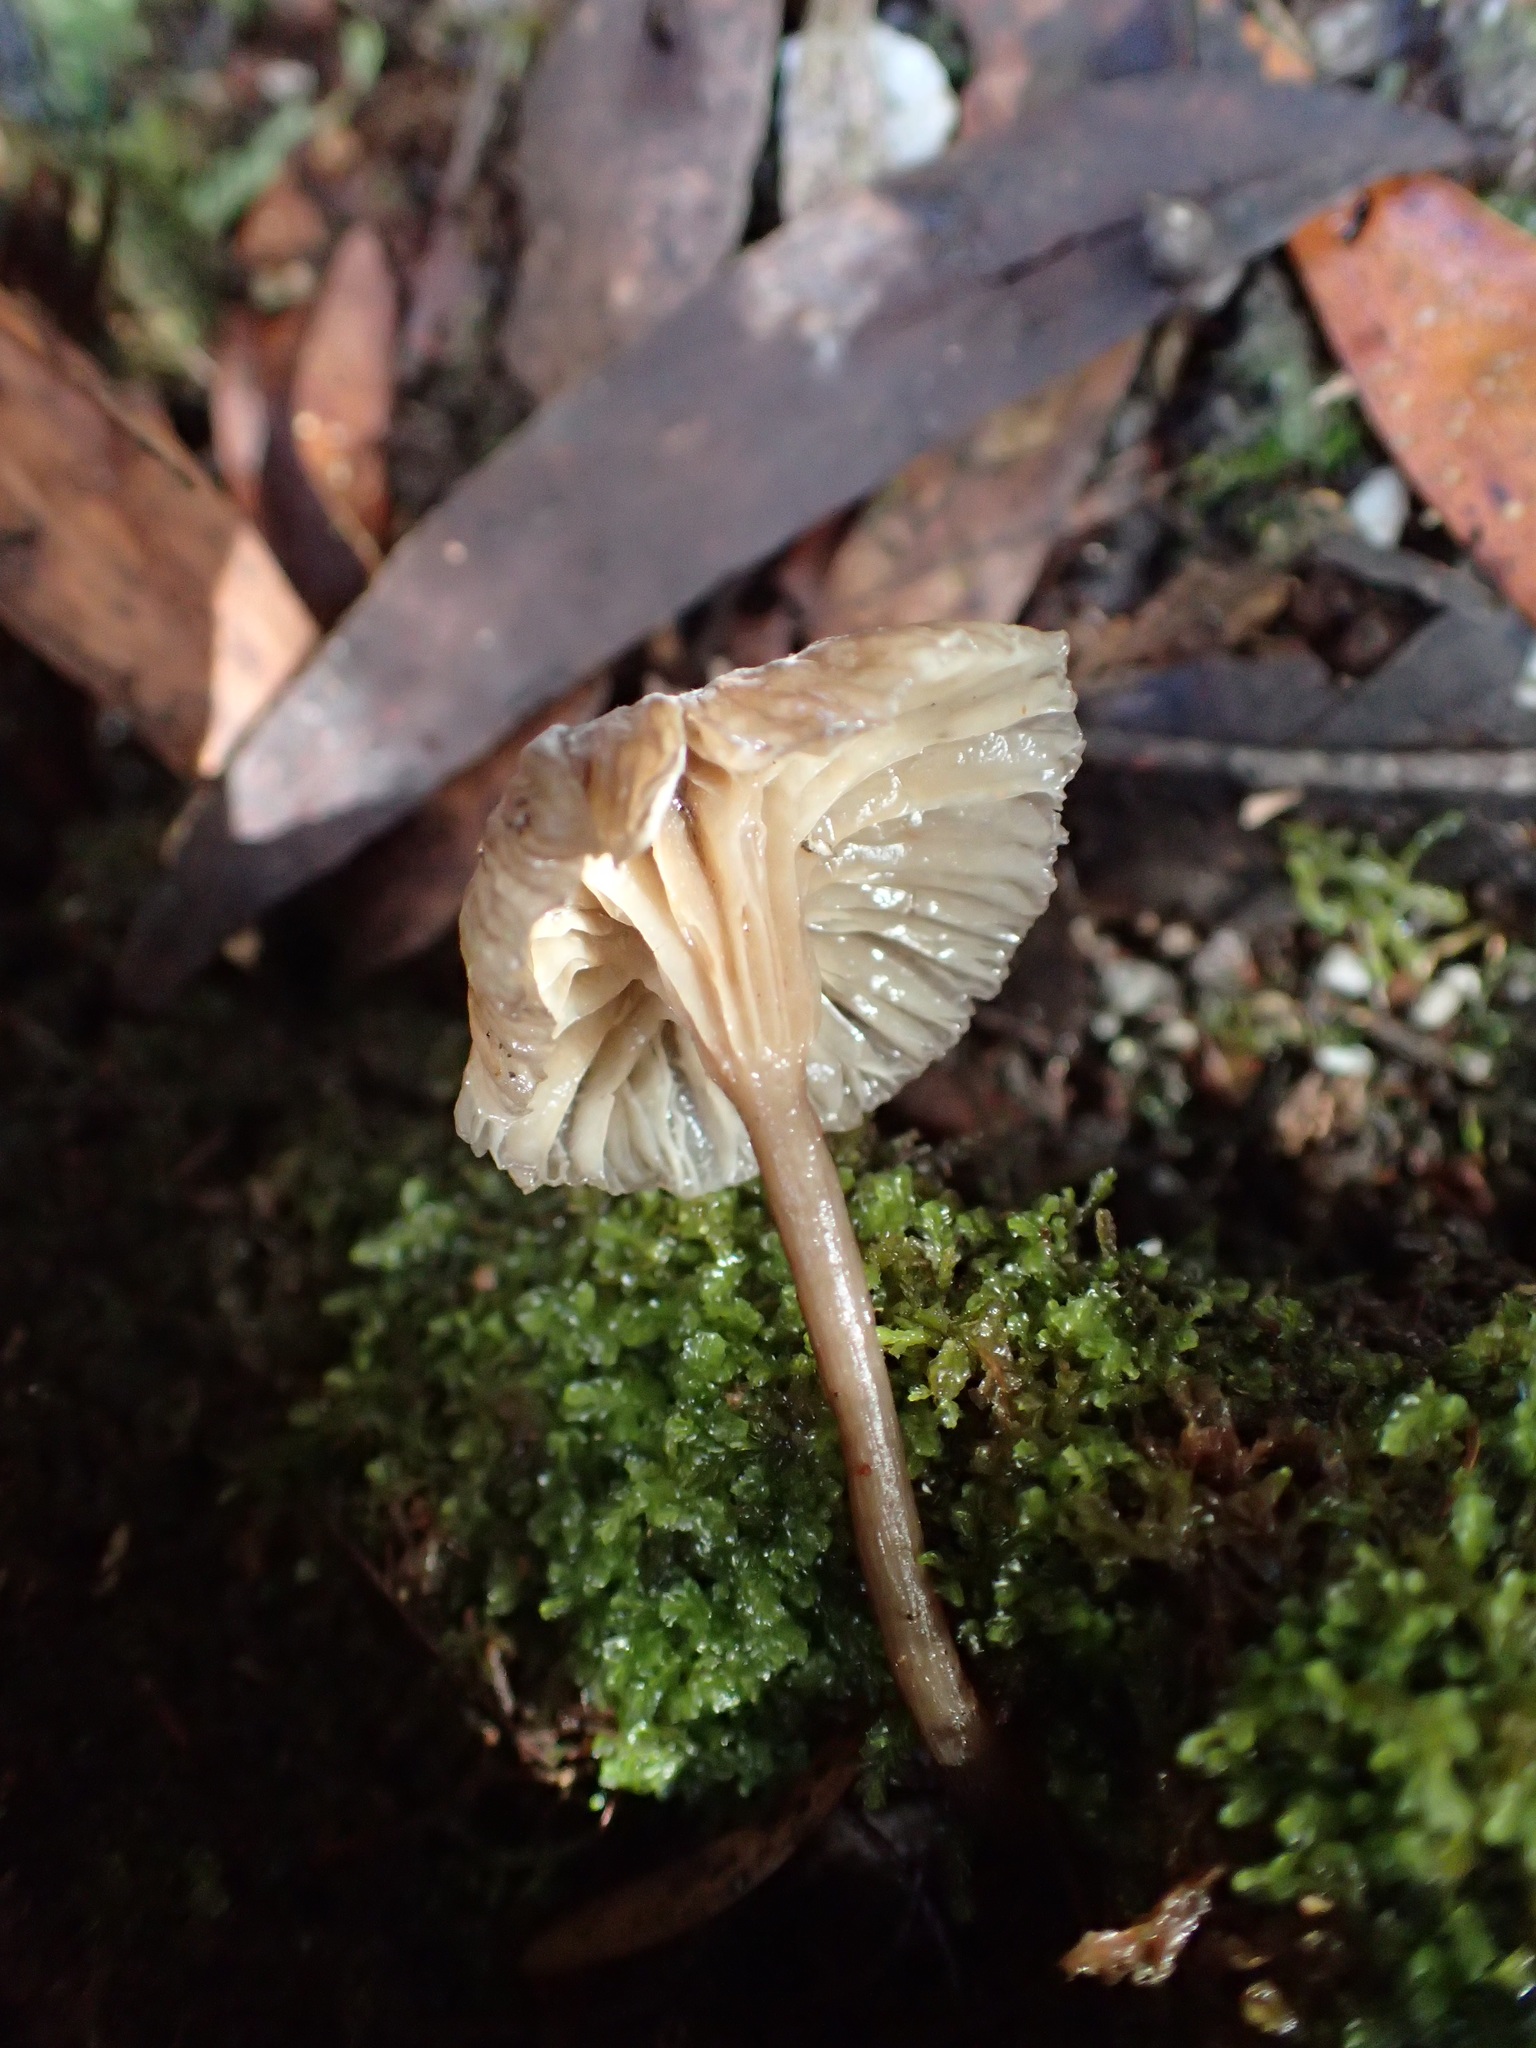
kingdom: Fungi
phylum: Basidiomycota
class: Agaricomycetes
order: Agaricales
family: Marasmiaceae
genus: Trogia
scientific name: Trogia straminea
